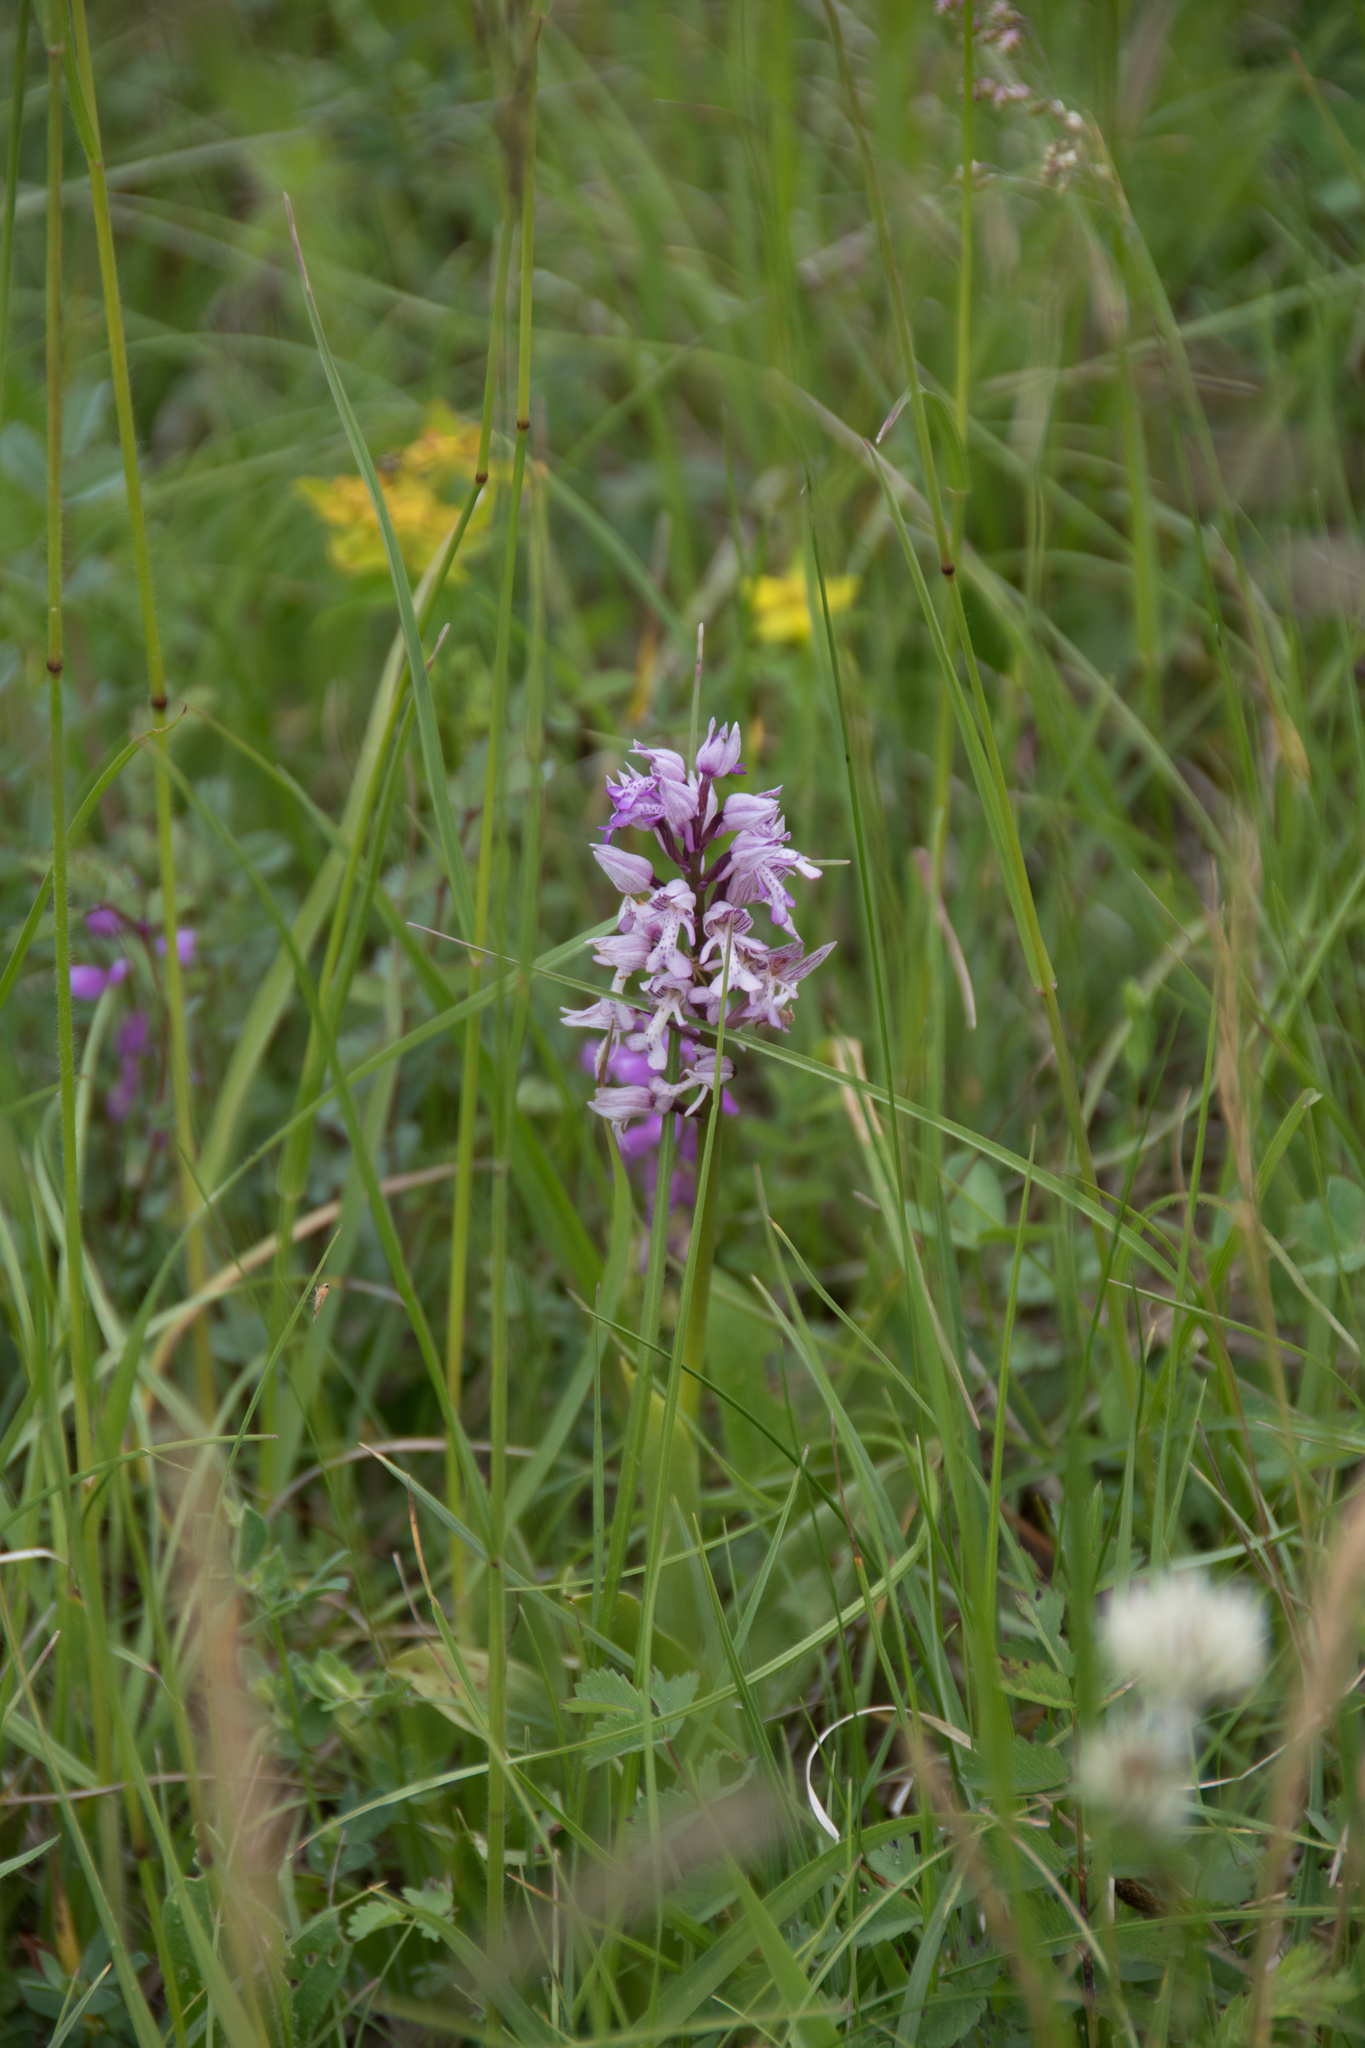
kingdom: Plantae
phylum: Tracheophyta
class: Liliopsida
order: Asparagales
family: Orchidaceae
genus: Orchis
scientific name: Orchis militaris
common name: Military orchid
